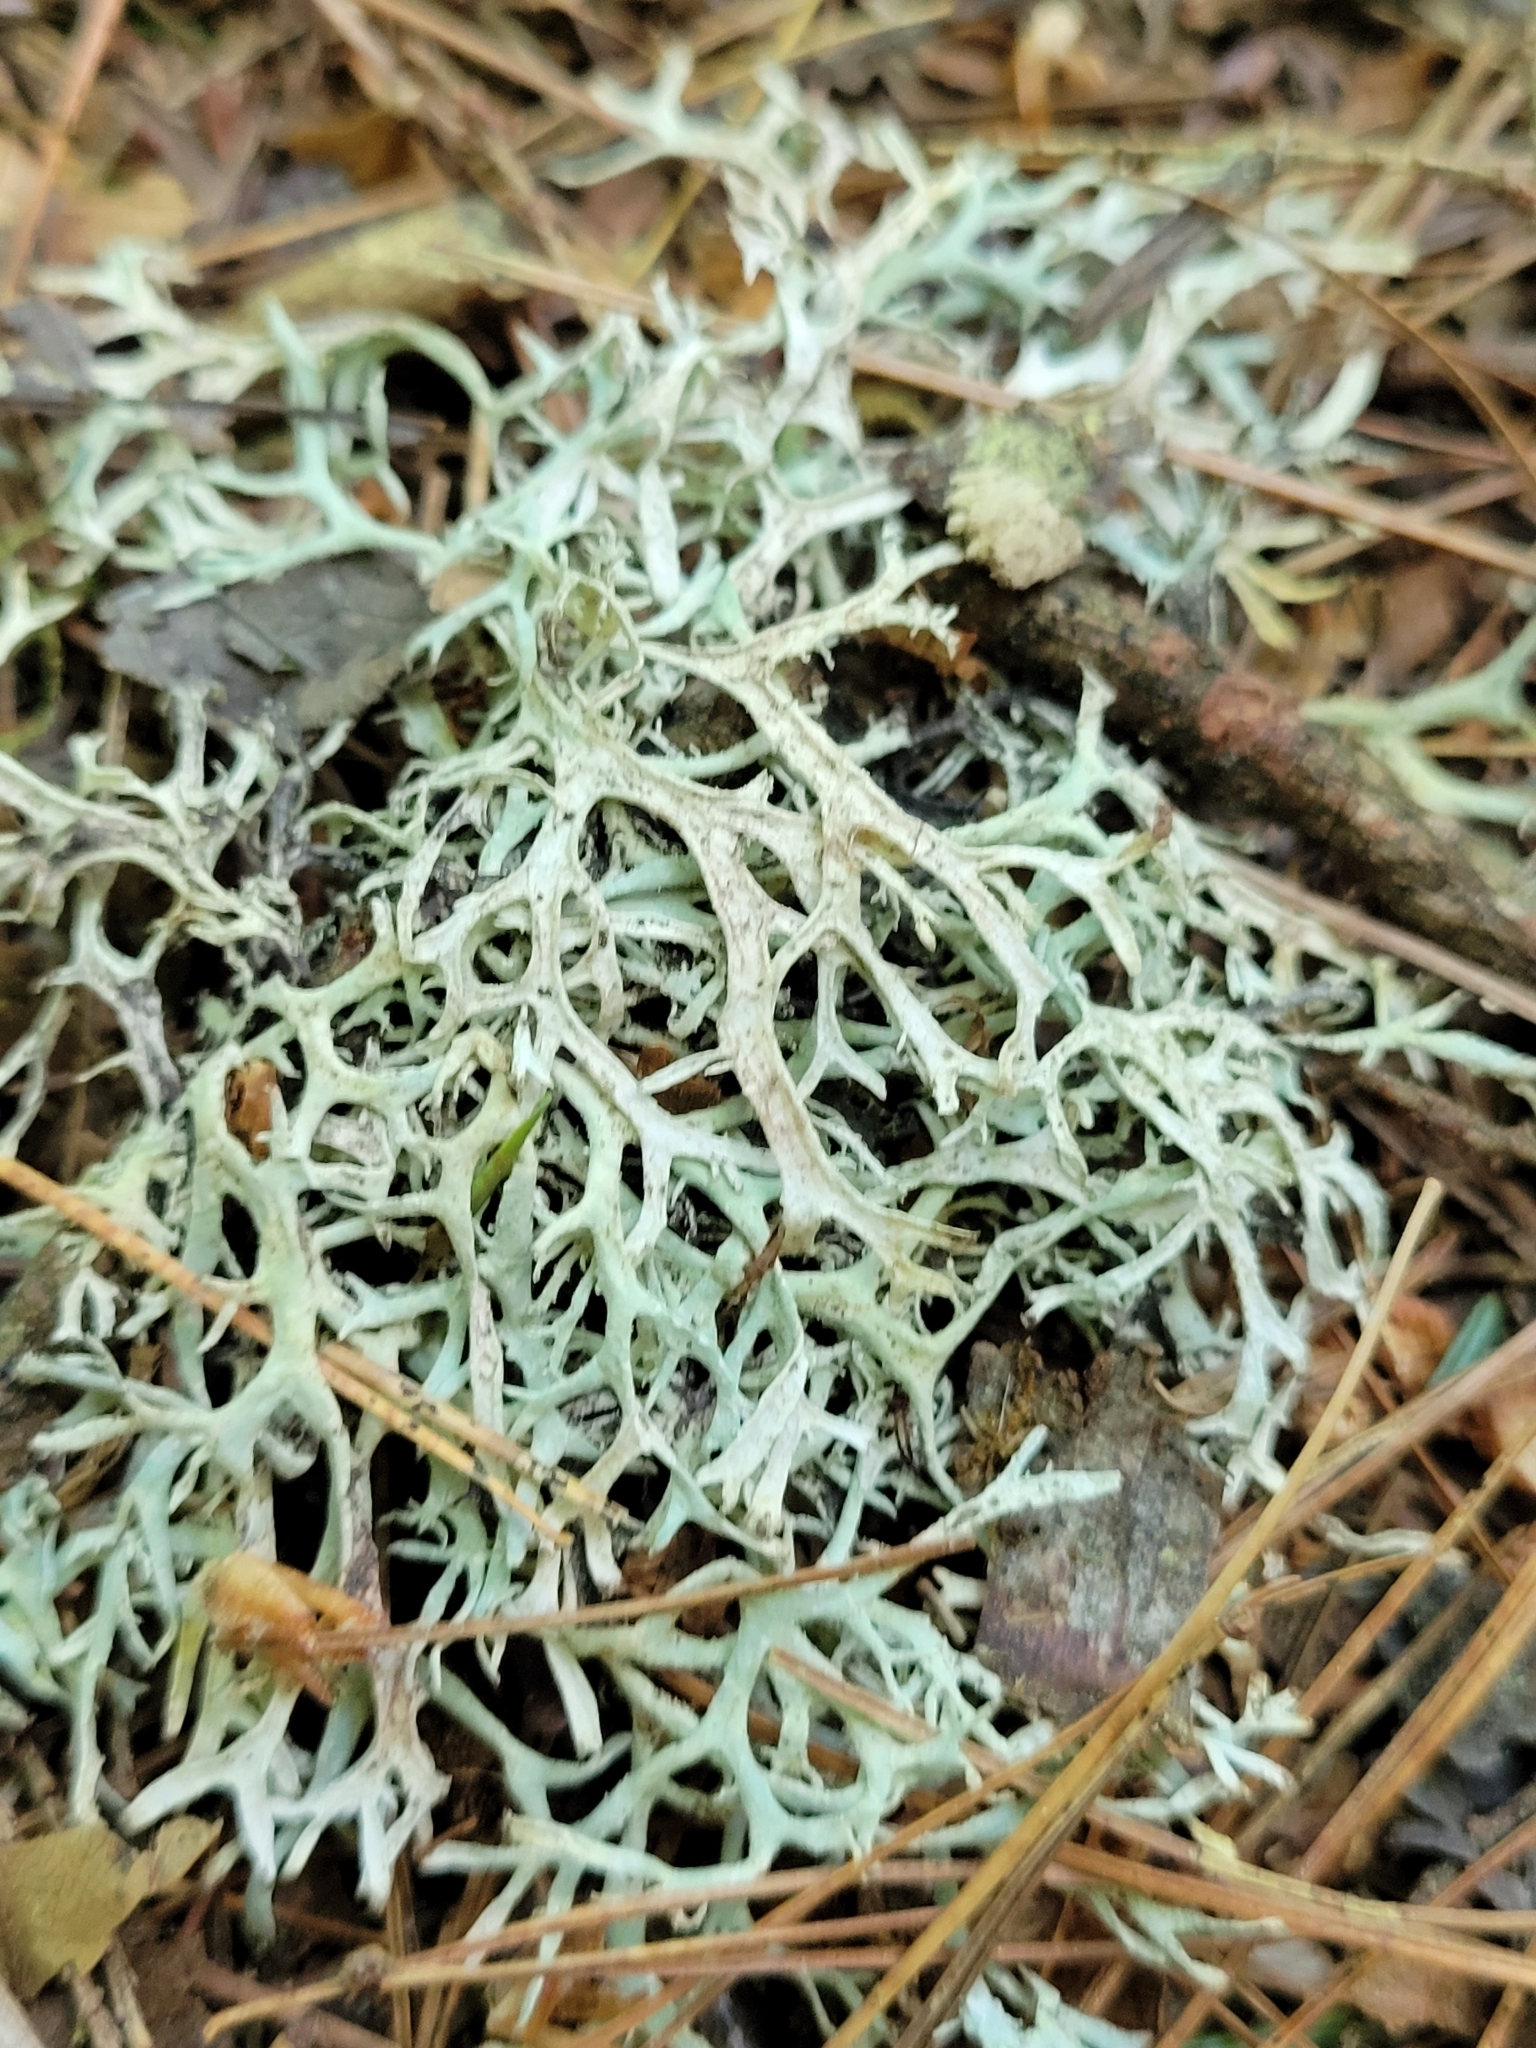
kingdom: Fungi
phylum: Ascomycota
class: Lecanoromycetes
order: Lecanorales
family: Parmeliaceae
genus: Pseudevernia
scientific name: Pseudevernia consocians
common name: Common antler lichen
